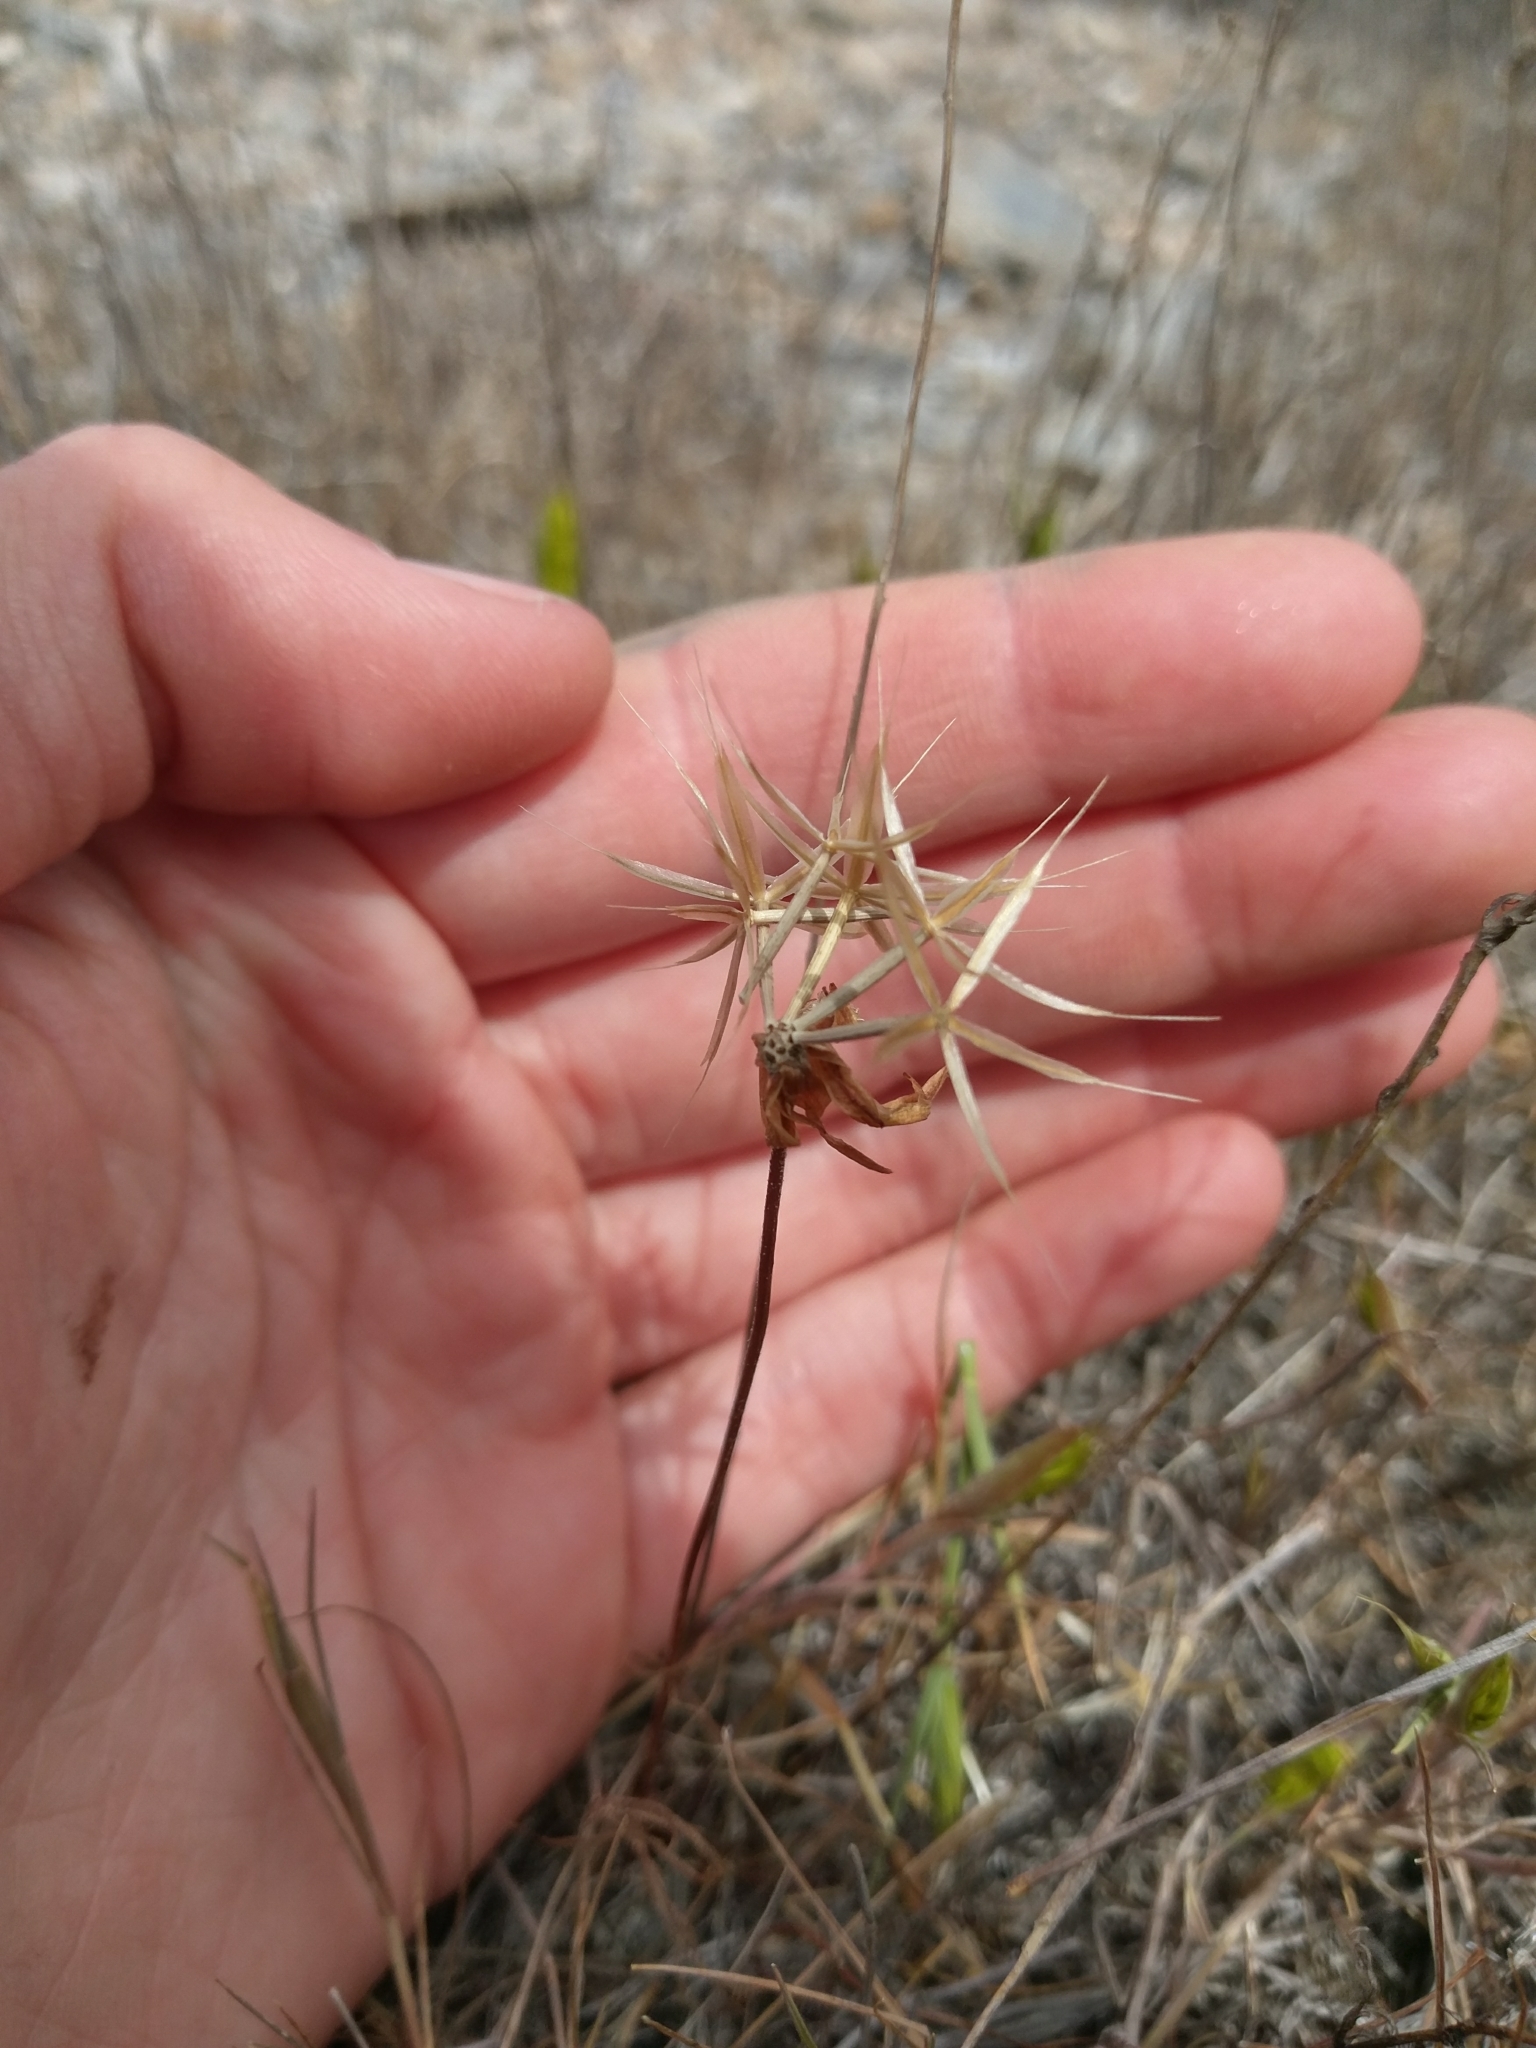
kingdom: Plantae
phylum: Tracheophyta
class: Magnoliopsida
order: Asterales
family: Asteraceae
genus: Microseris
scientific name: Microseris lindleyi
